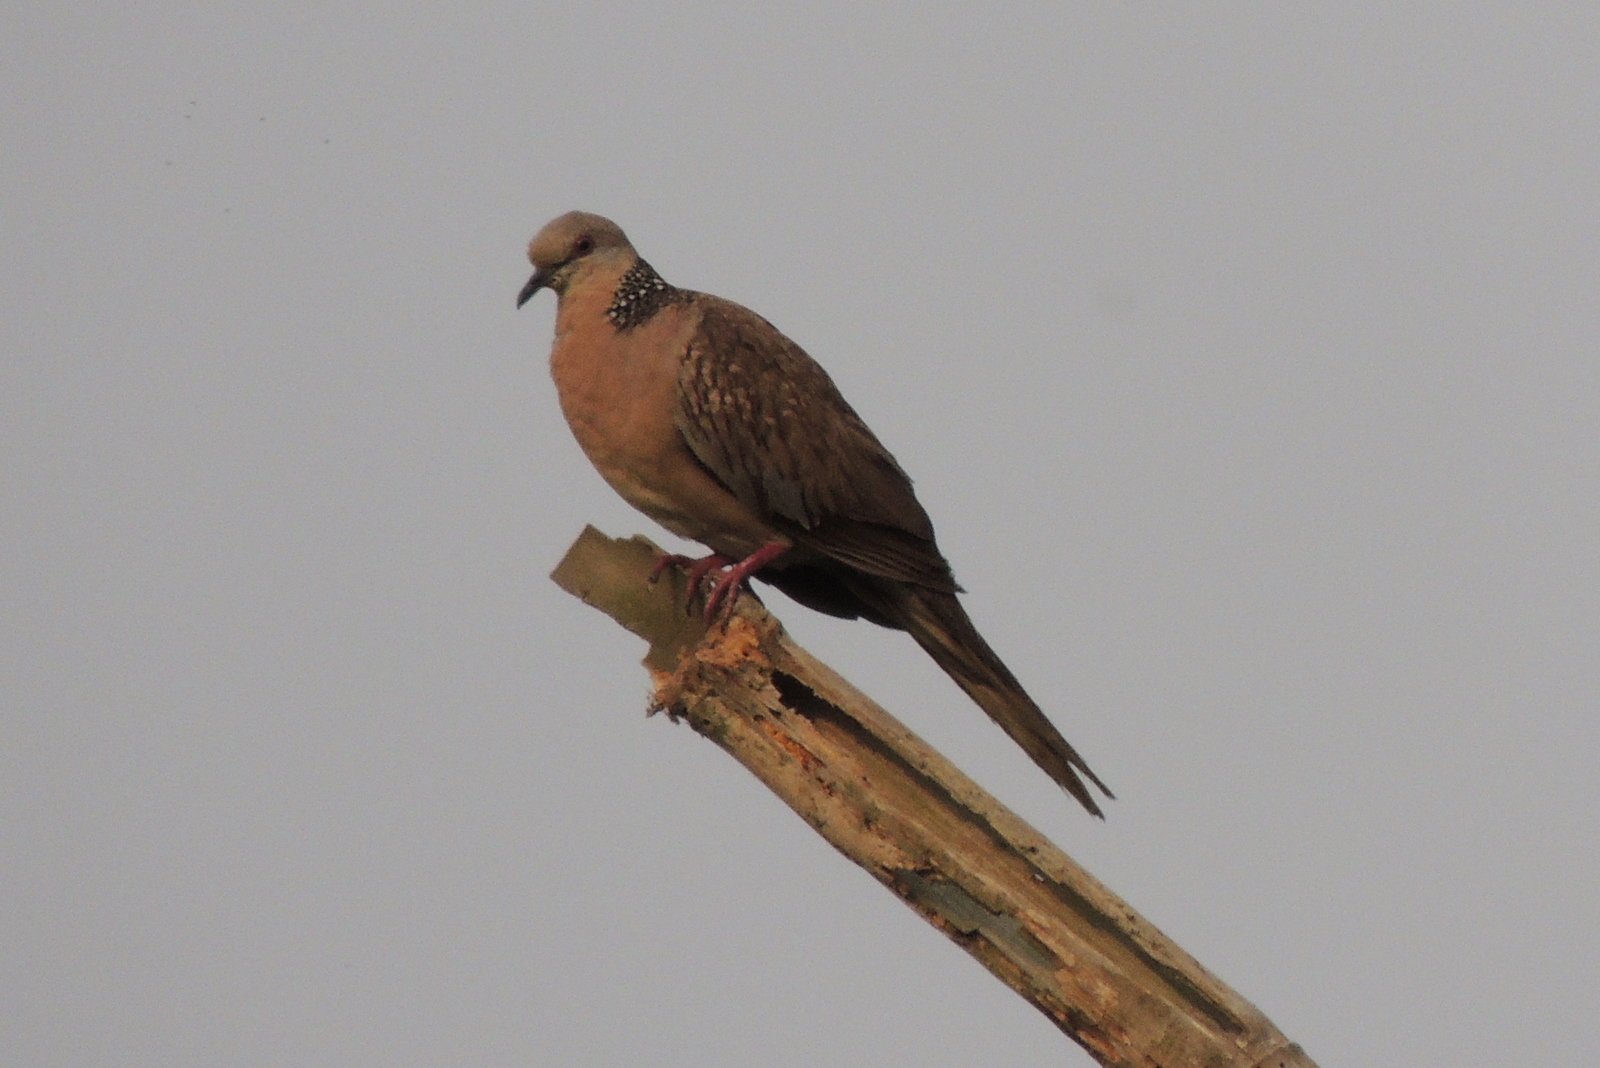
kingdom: Animalia
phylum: Chordata
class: Aves
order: Columbiformes
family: Columbidae
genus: Spilopelia
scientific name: Spilopelia chinensis
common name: Spotted dove
